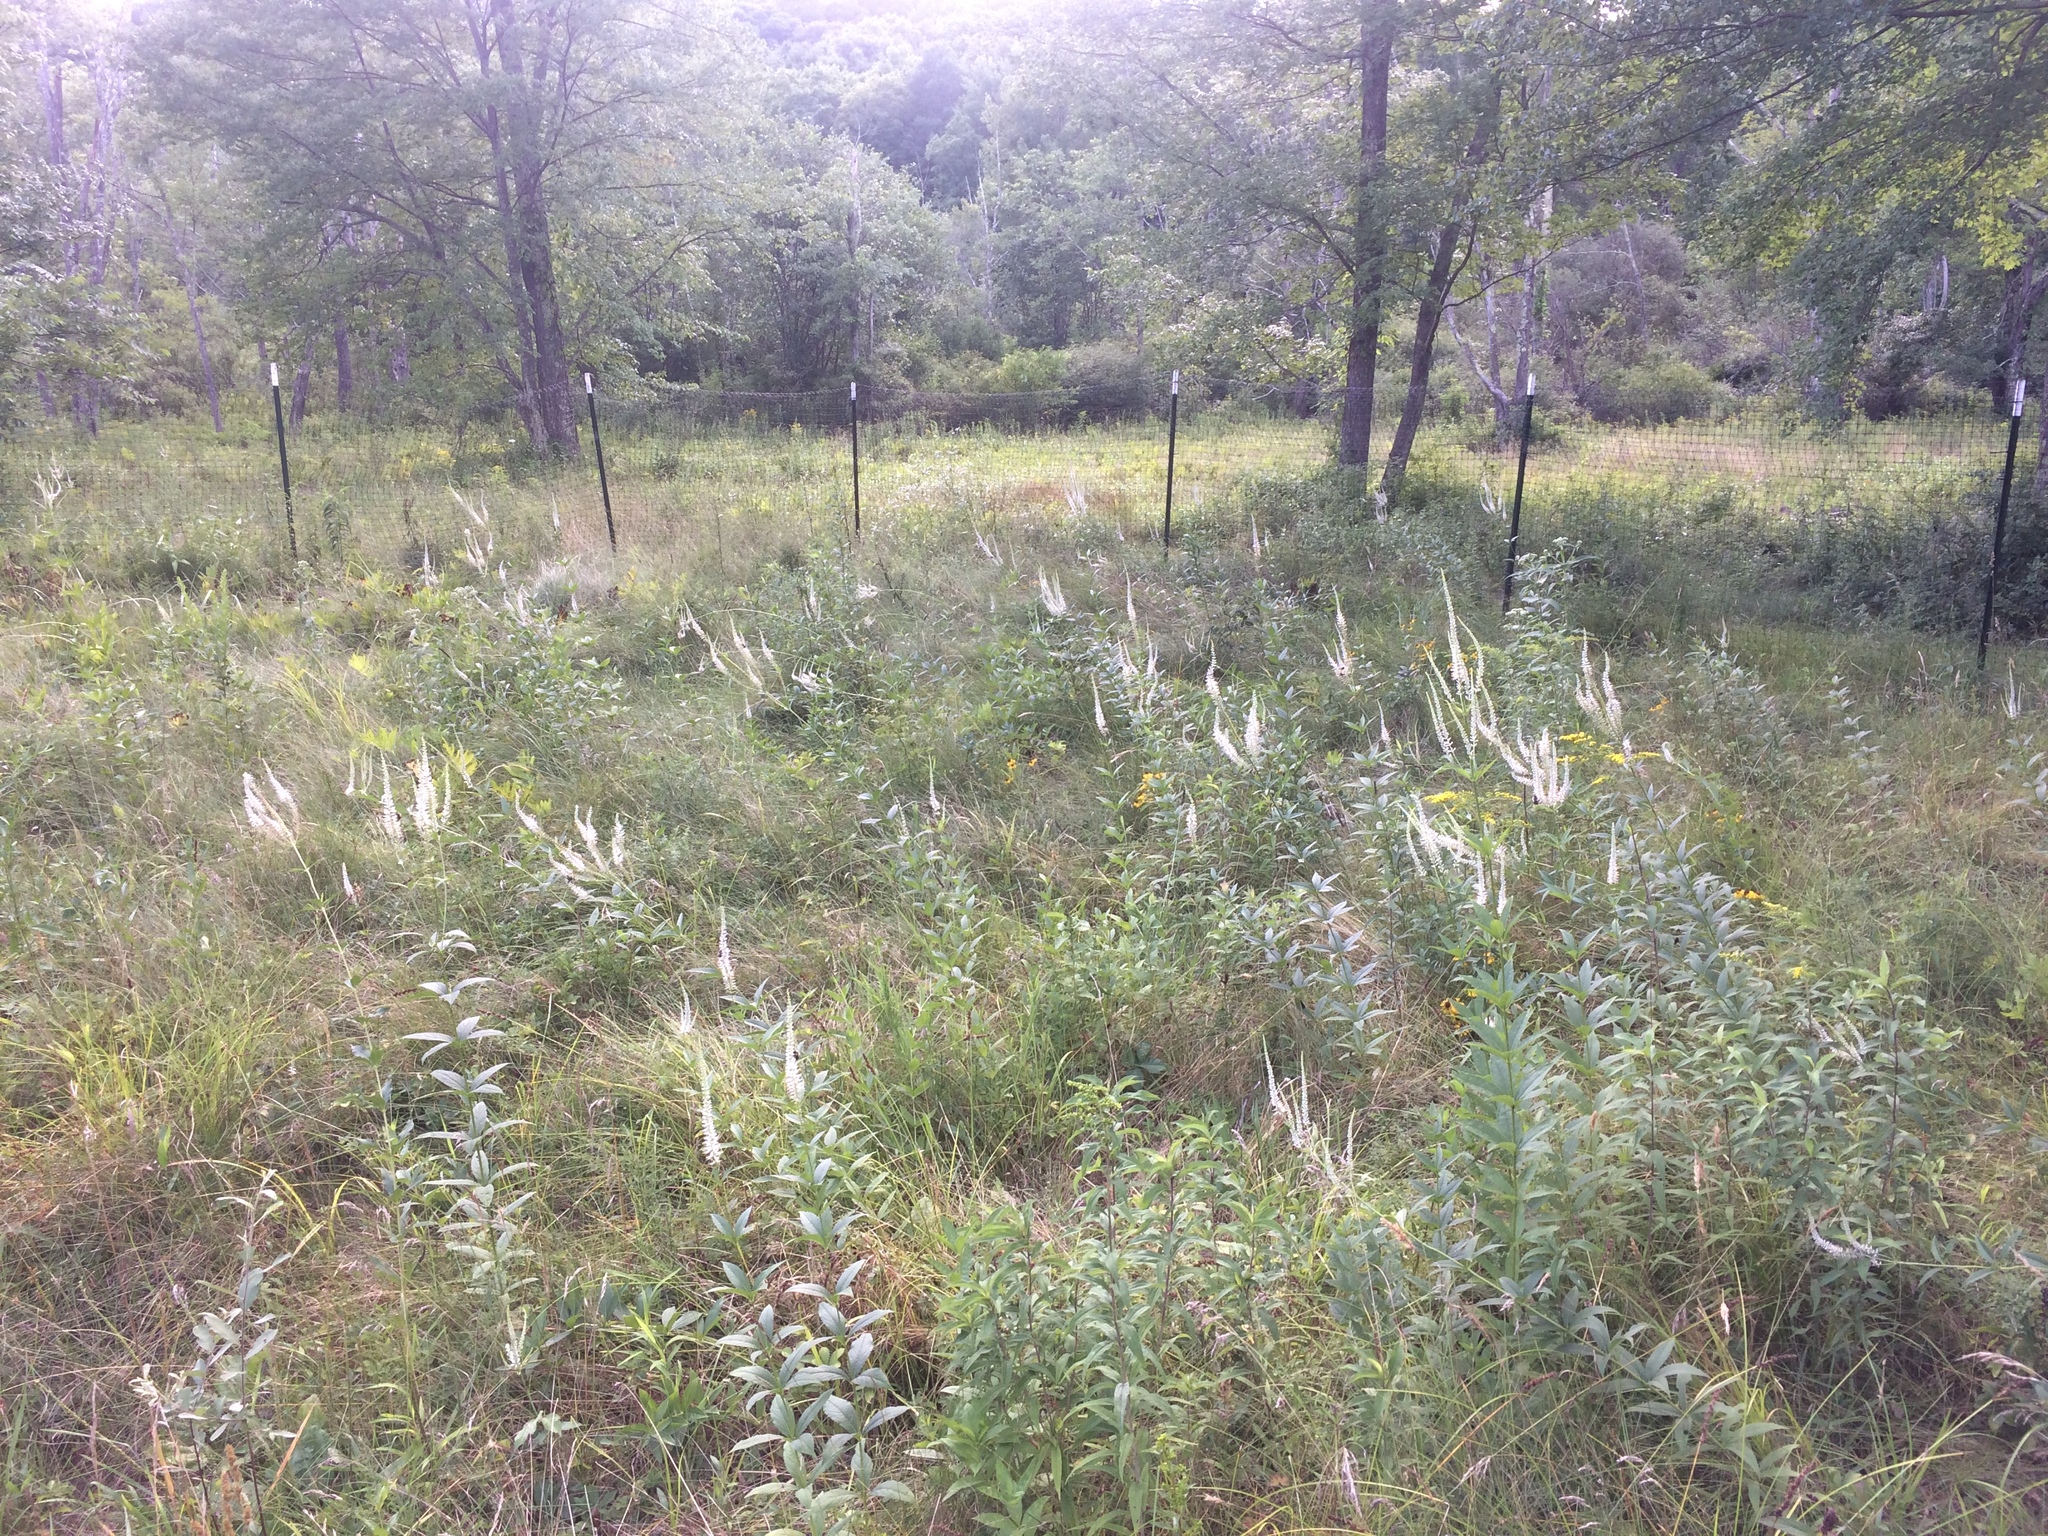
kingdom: Plantae
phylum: Tracheophyta
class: Magnoliopsida
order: Lamiales
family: Plantaginaceae
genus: Veronicastrum
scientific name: Veronicastrum virginicum
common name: Blackroot
